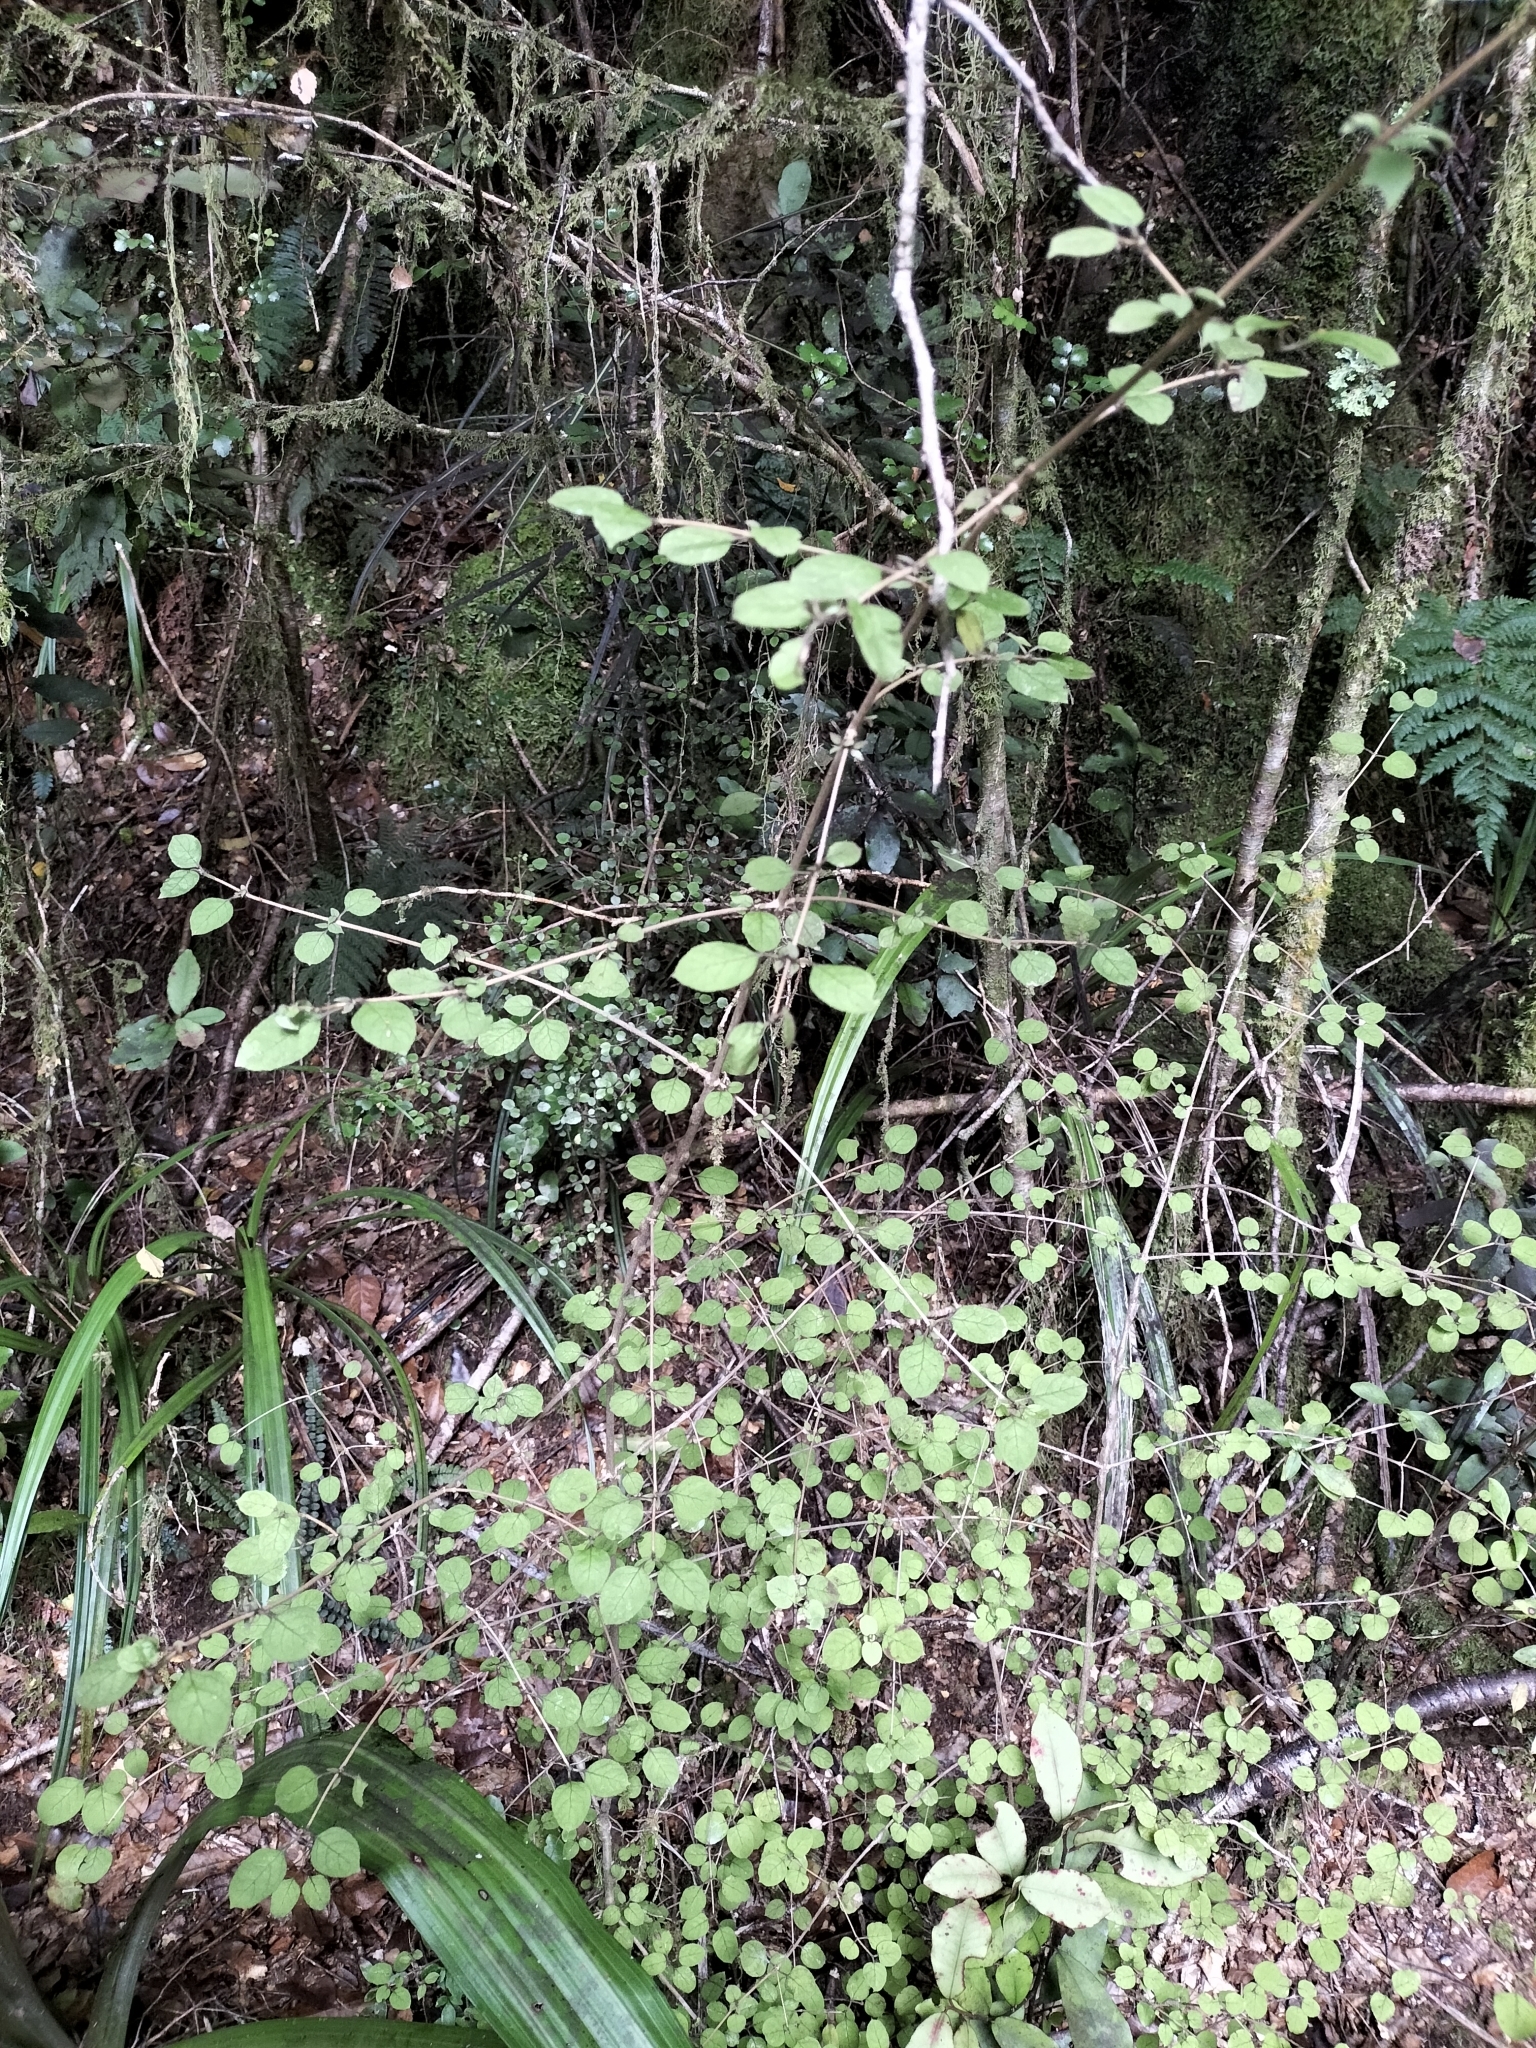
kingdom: Plantae
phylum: Tracheophyta
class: Magnoliopsida
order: Gentianales
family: Rubiaceae
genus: Coprosma
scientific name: Coprosma rotundifolia
